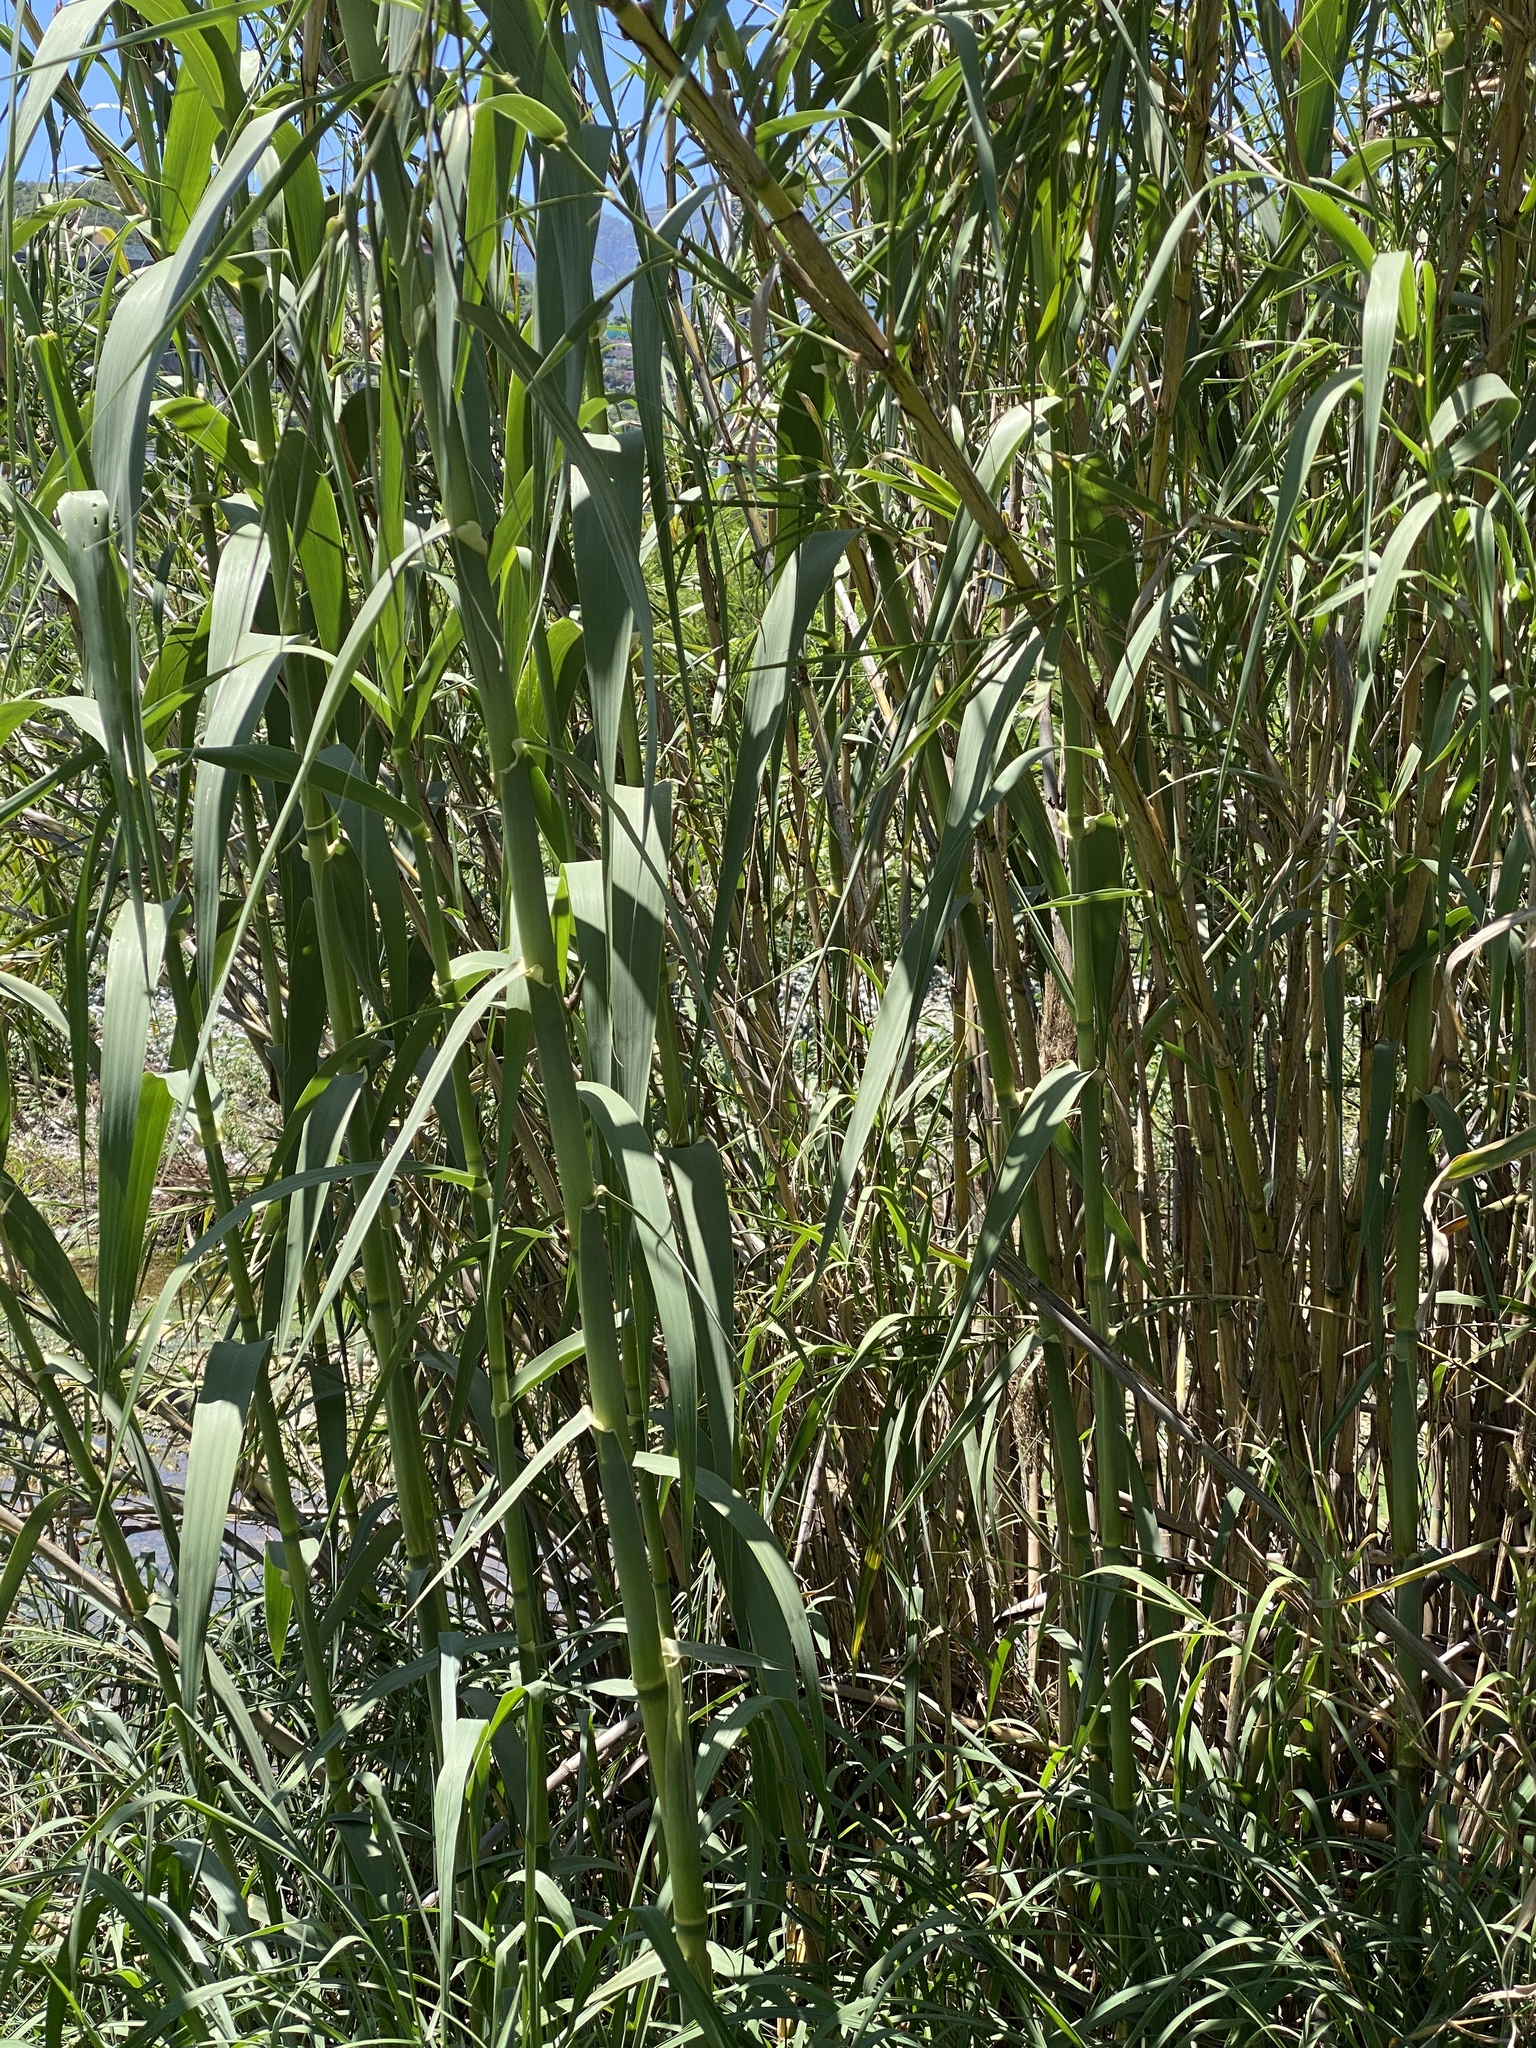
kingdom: Plantae
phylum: Tracheophyta
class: Liliopsida
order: Poales
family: Poaceae
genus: Arundo
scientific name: Arundo donax
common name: Giant reed
